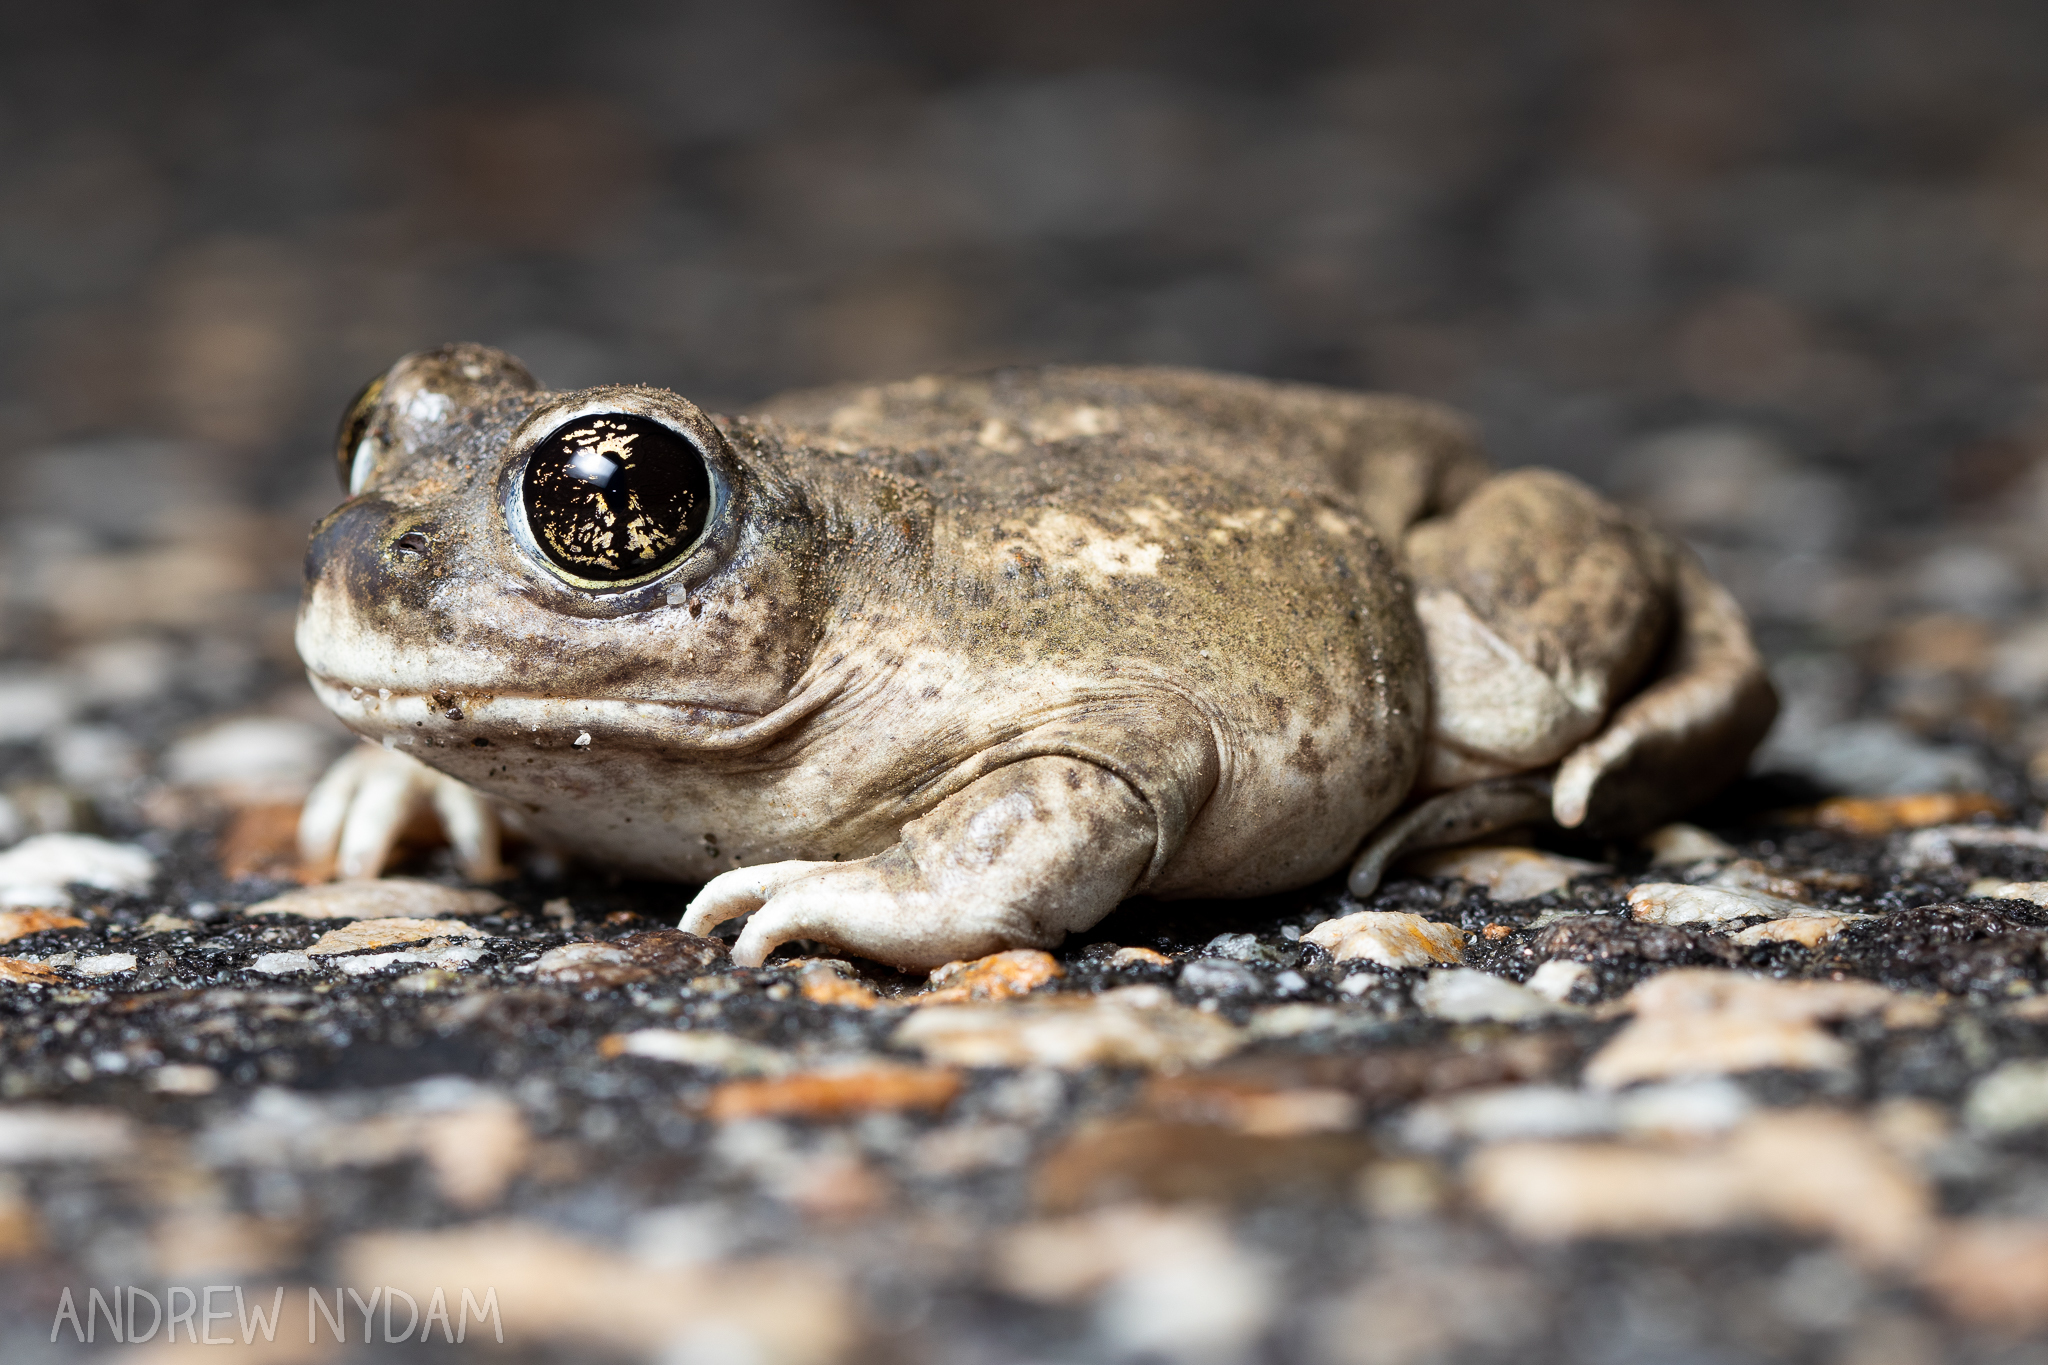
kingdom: Animalia
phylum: Chordata
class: Amphibia
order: Anura
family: Scaphiopodidae
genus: Spea
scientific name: Spea intermontana
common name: Great basin spadefoot
